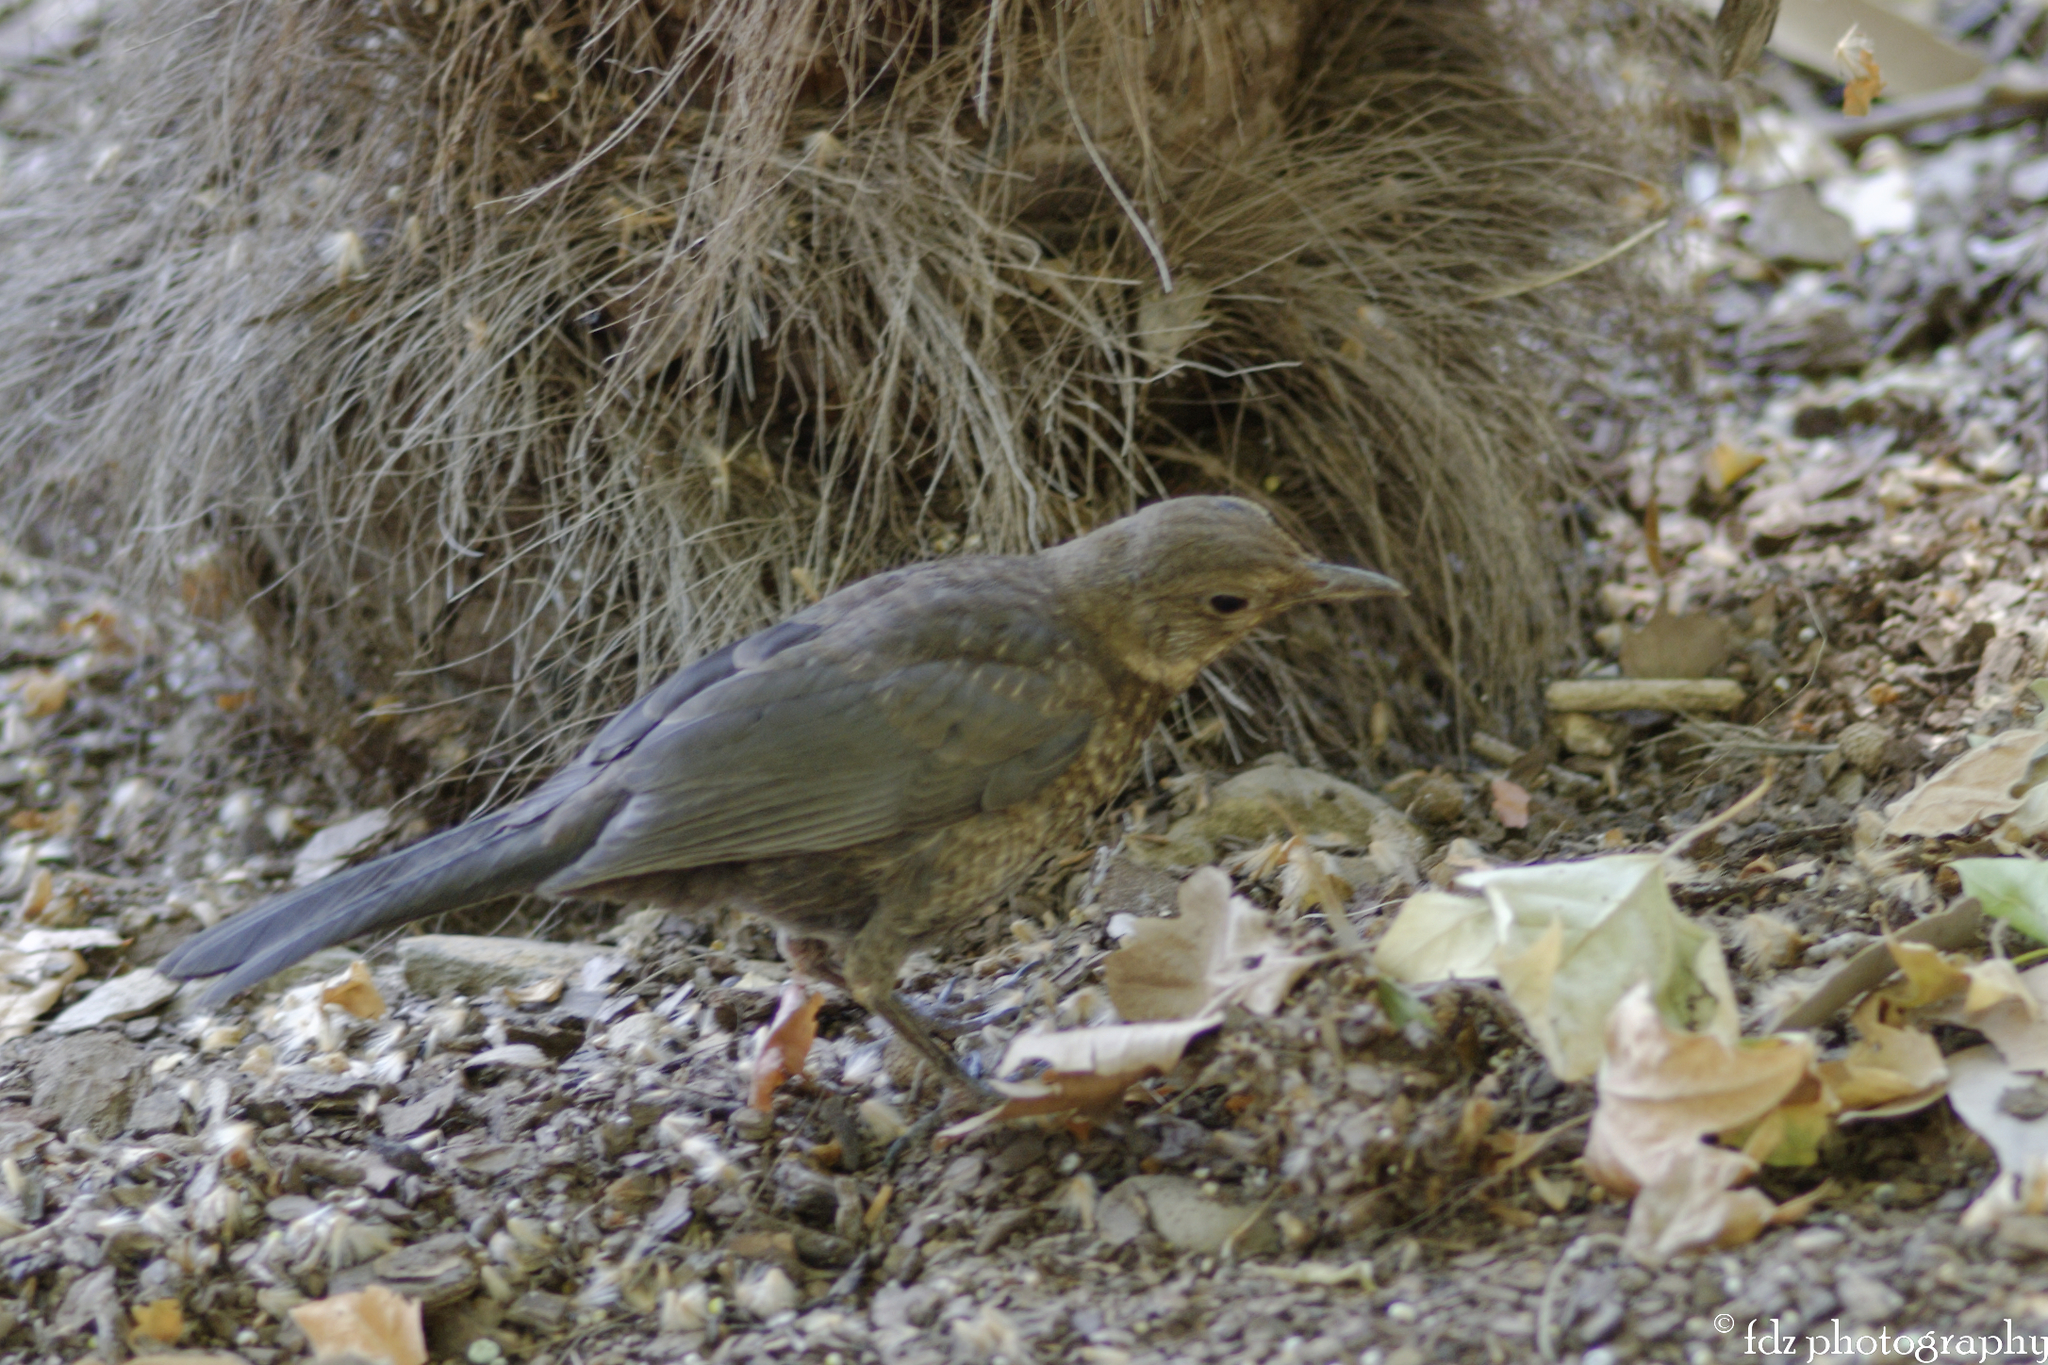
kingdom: Animalia
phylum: Chordata
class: Aves
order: Passeriformes
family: Turdidae
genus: Turdus
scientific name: Turdus merula
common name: Common blackbird
